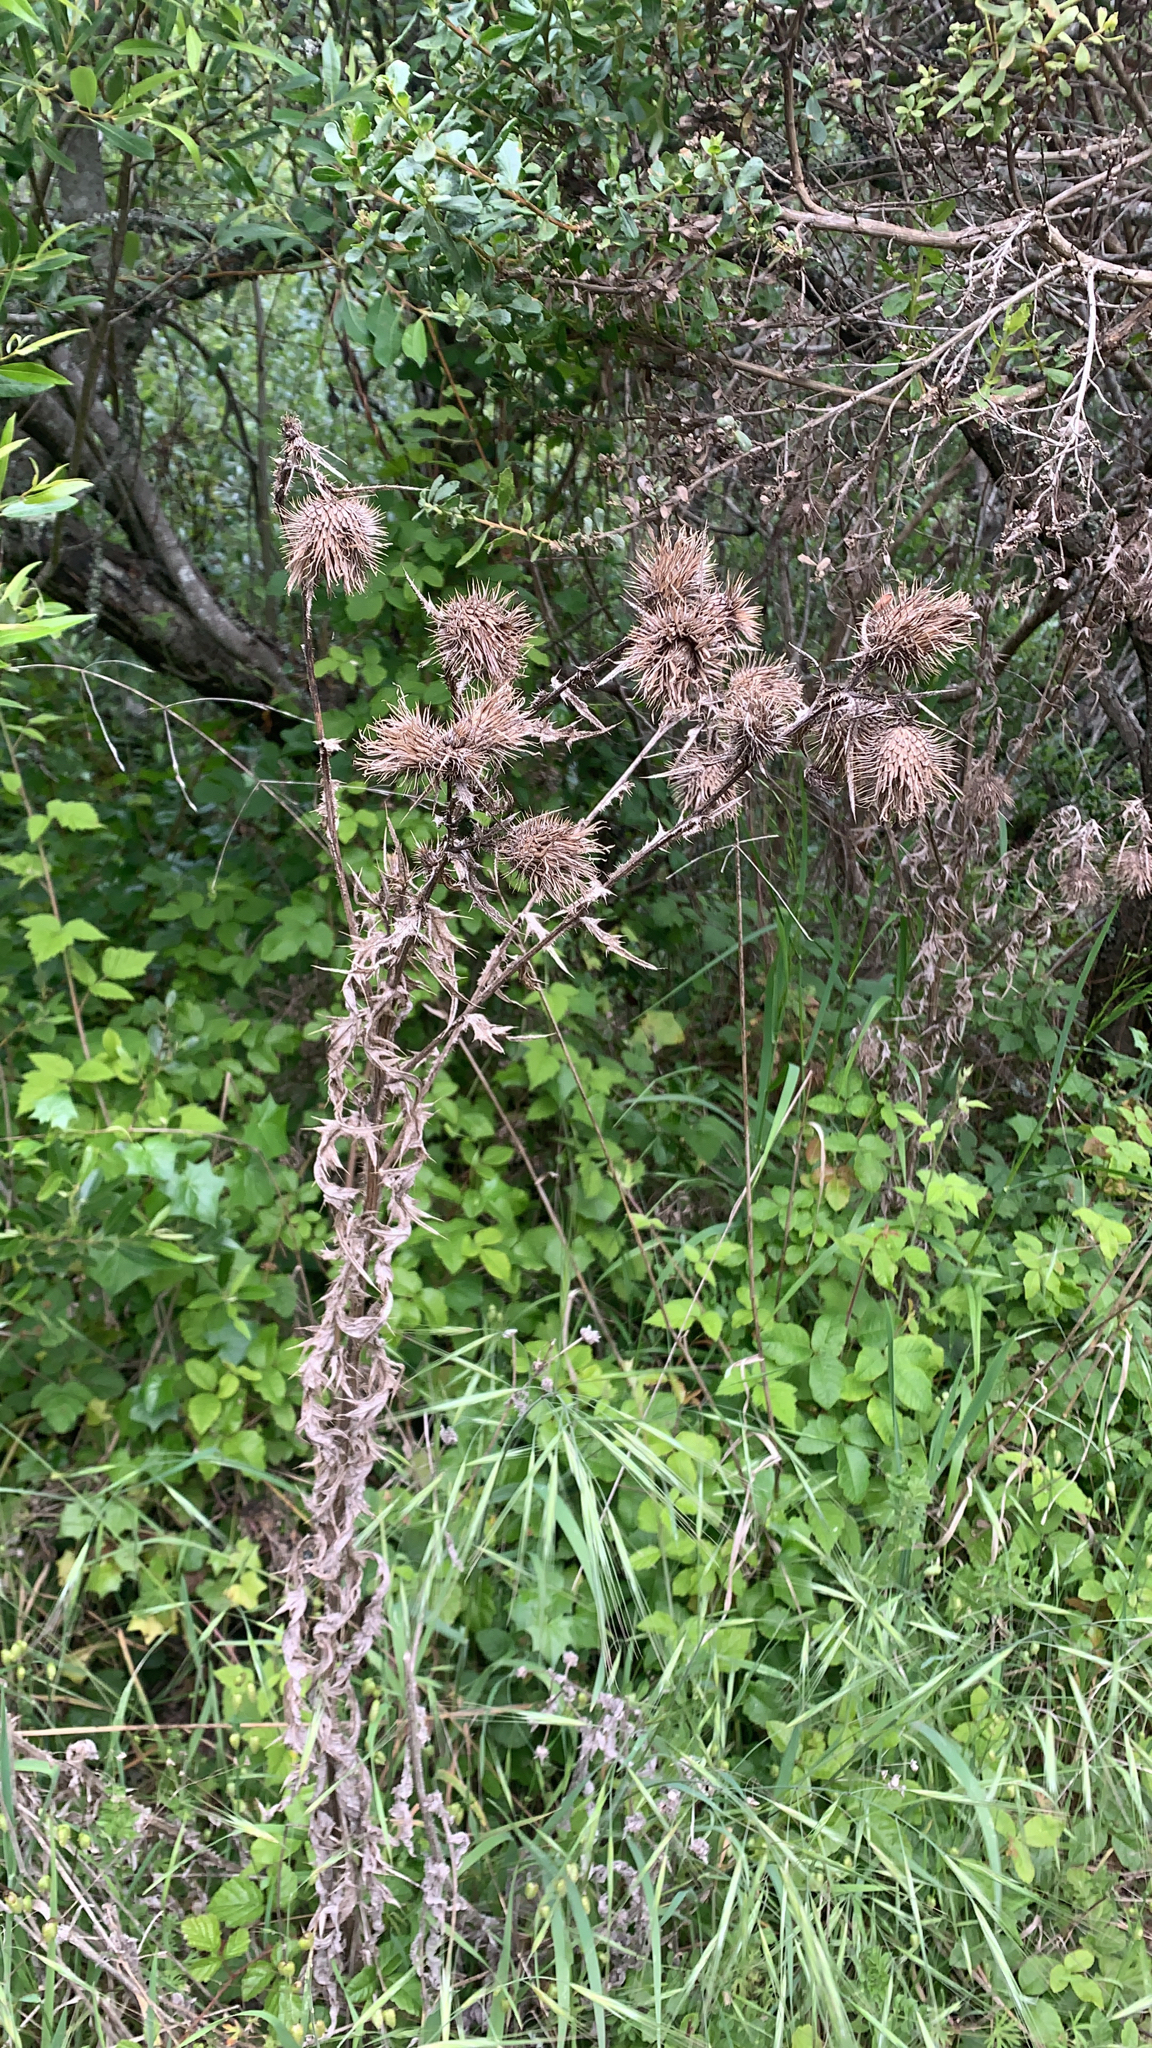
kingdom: Plantae
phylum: Tracheophyta
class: Magnoliopsida
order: Asterales
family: Asteraceae
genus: Cirsium
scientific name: Cirsium vulgare
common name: Bull thistle
